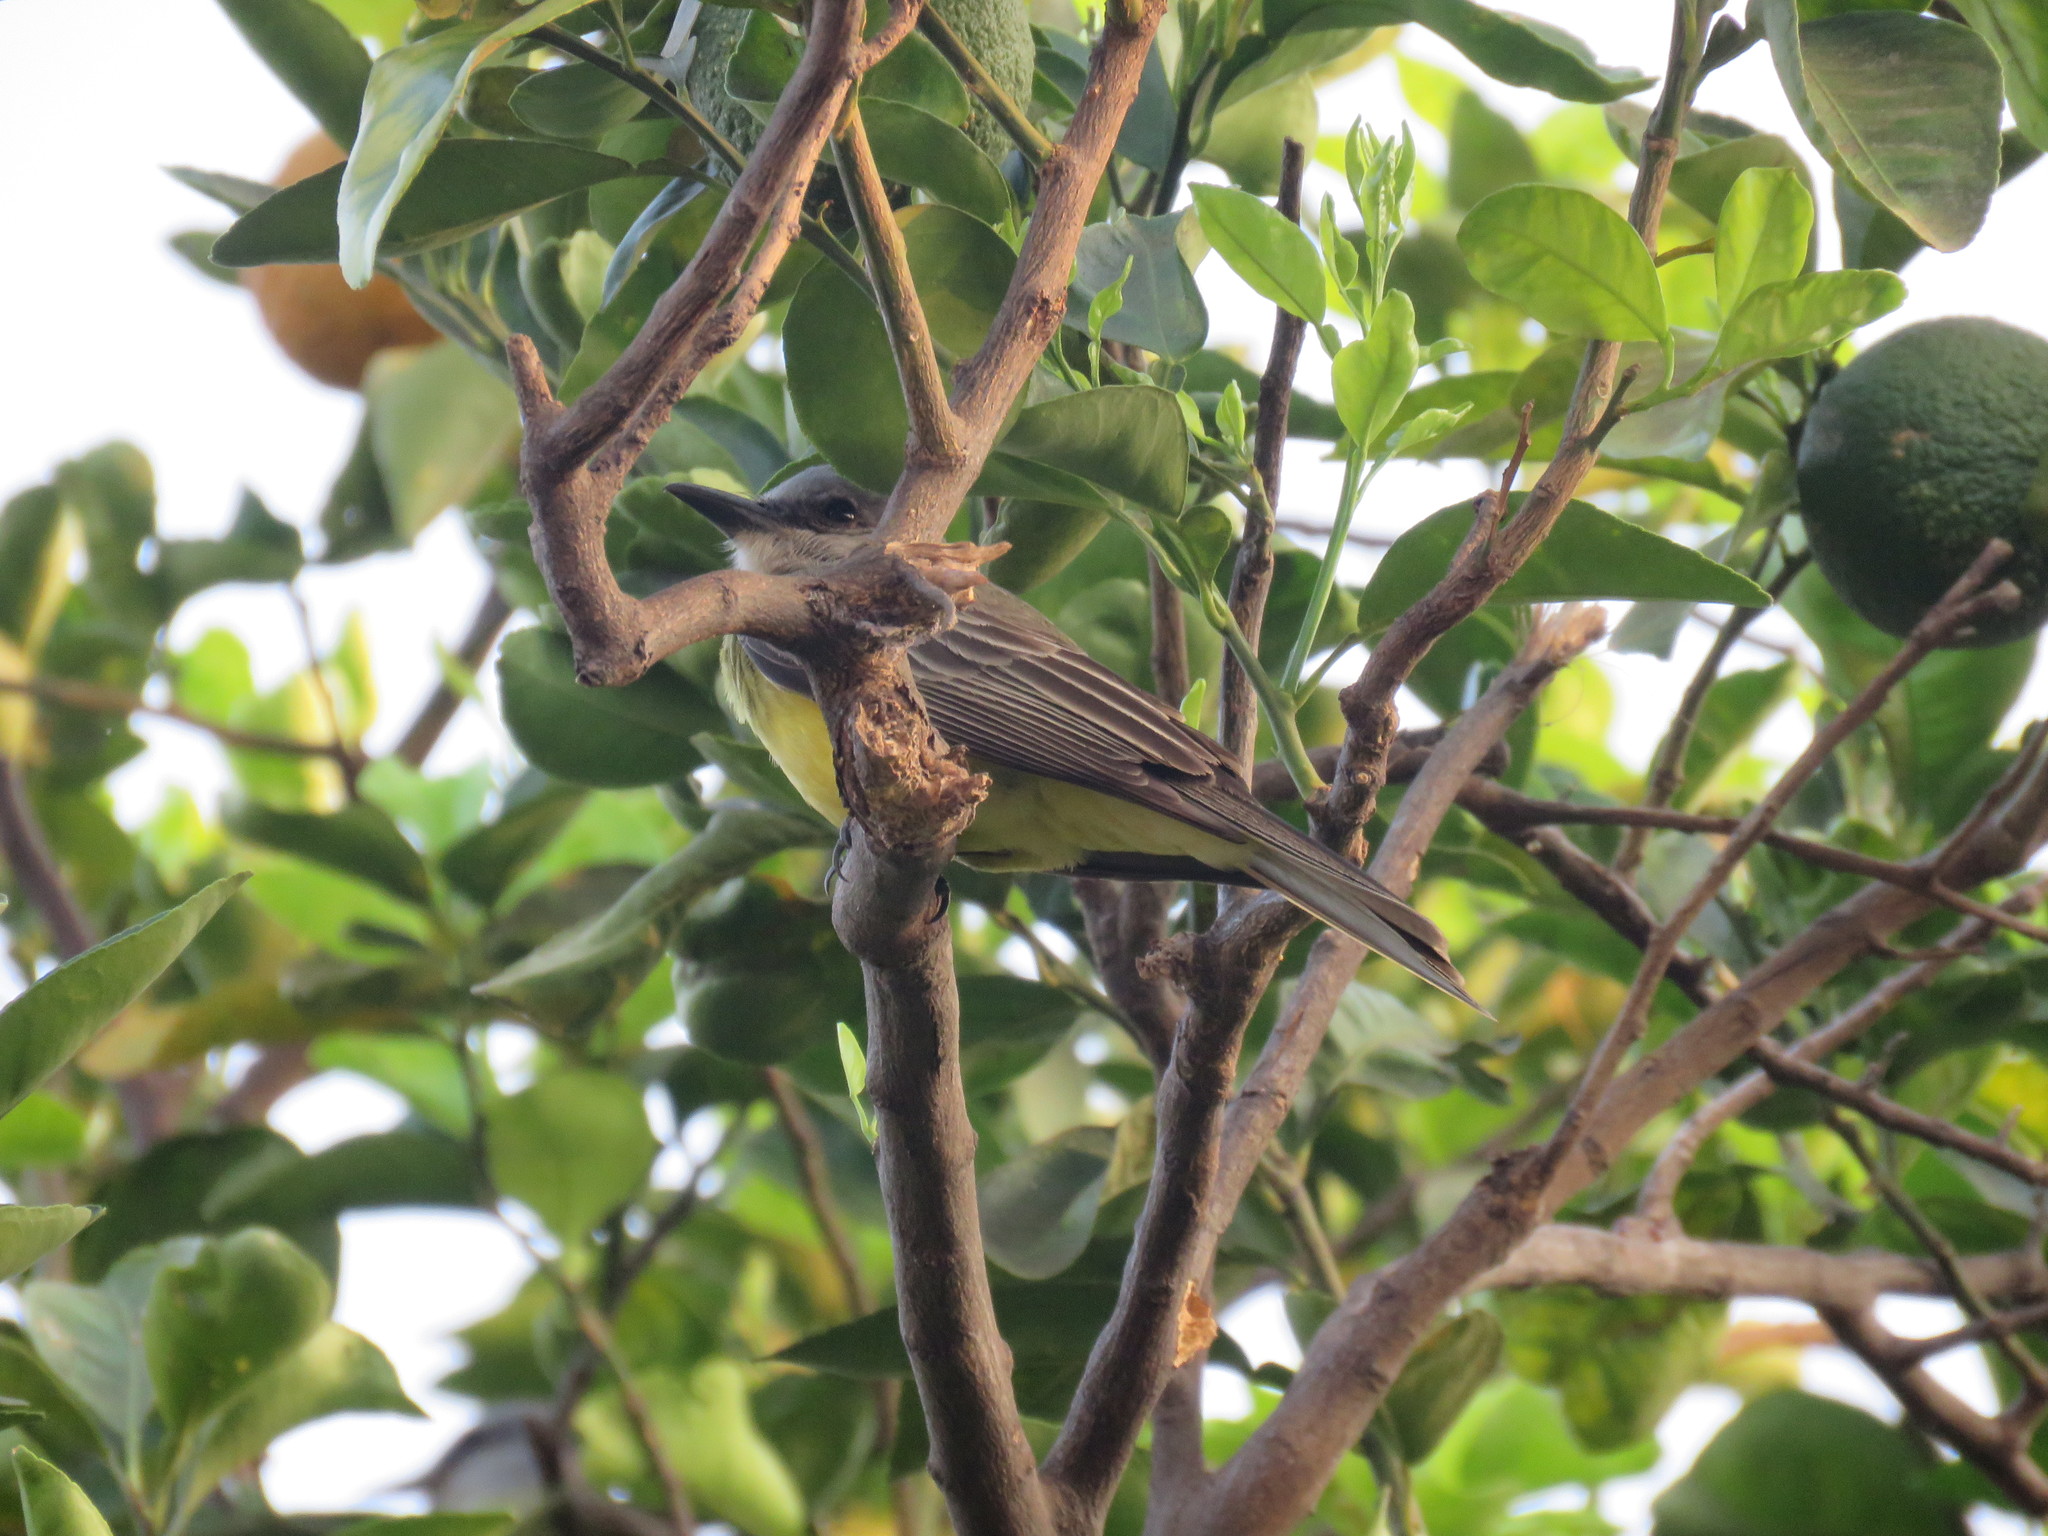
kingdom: Animalia
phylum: Chordata
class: Aves
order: Passeriformes
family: Tyrannidae
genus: Tyrannus
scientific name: Tyrannus melancholicus
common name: Tropical kingbird
